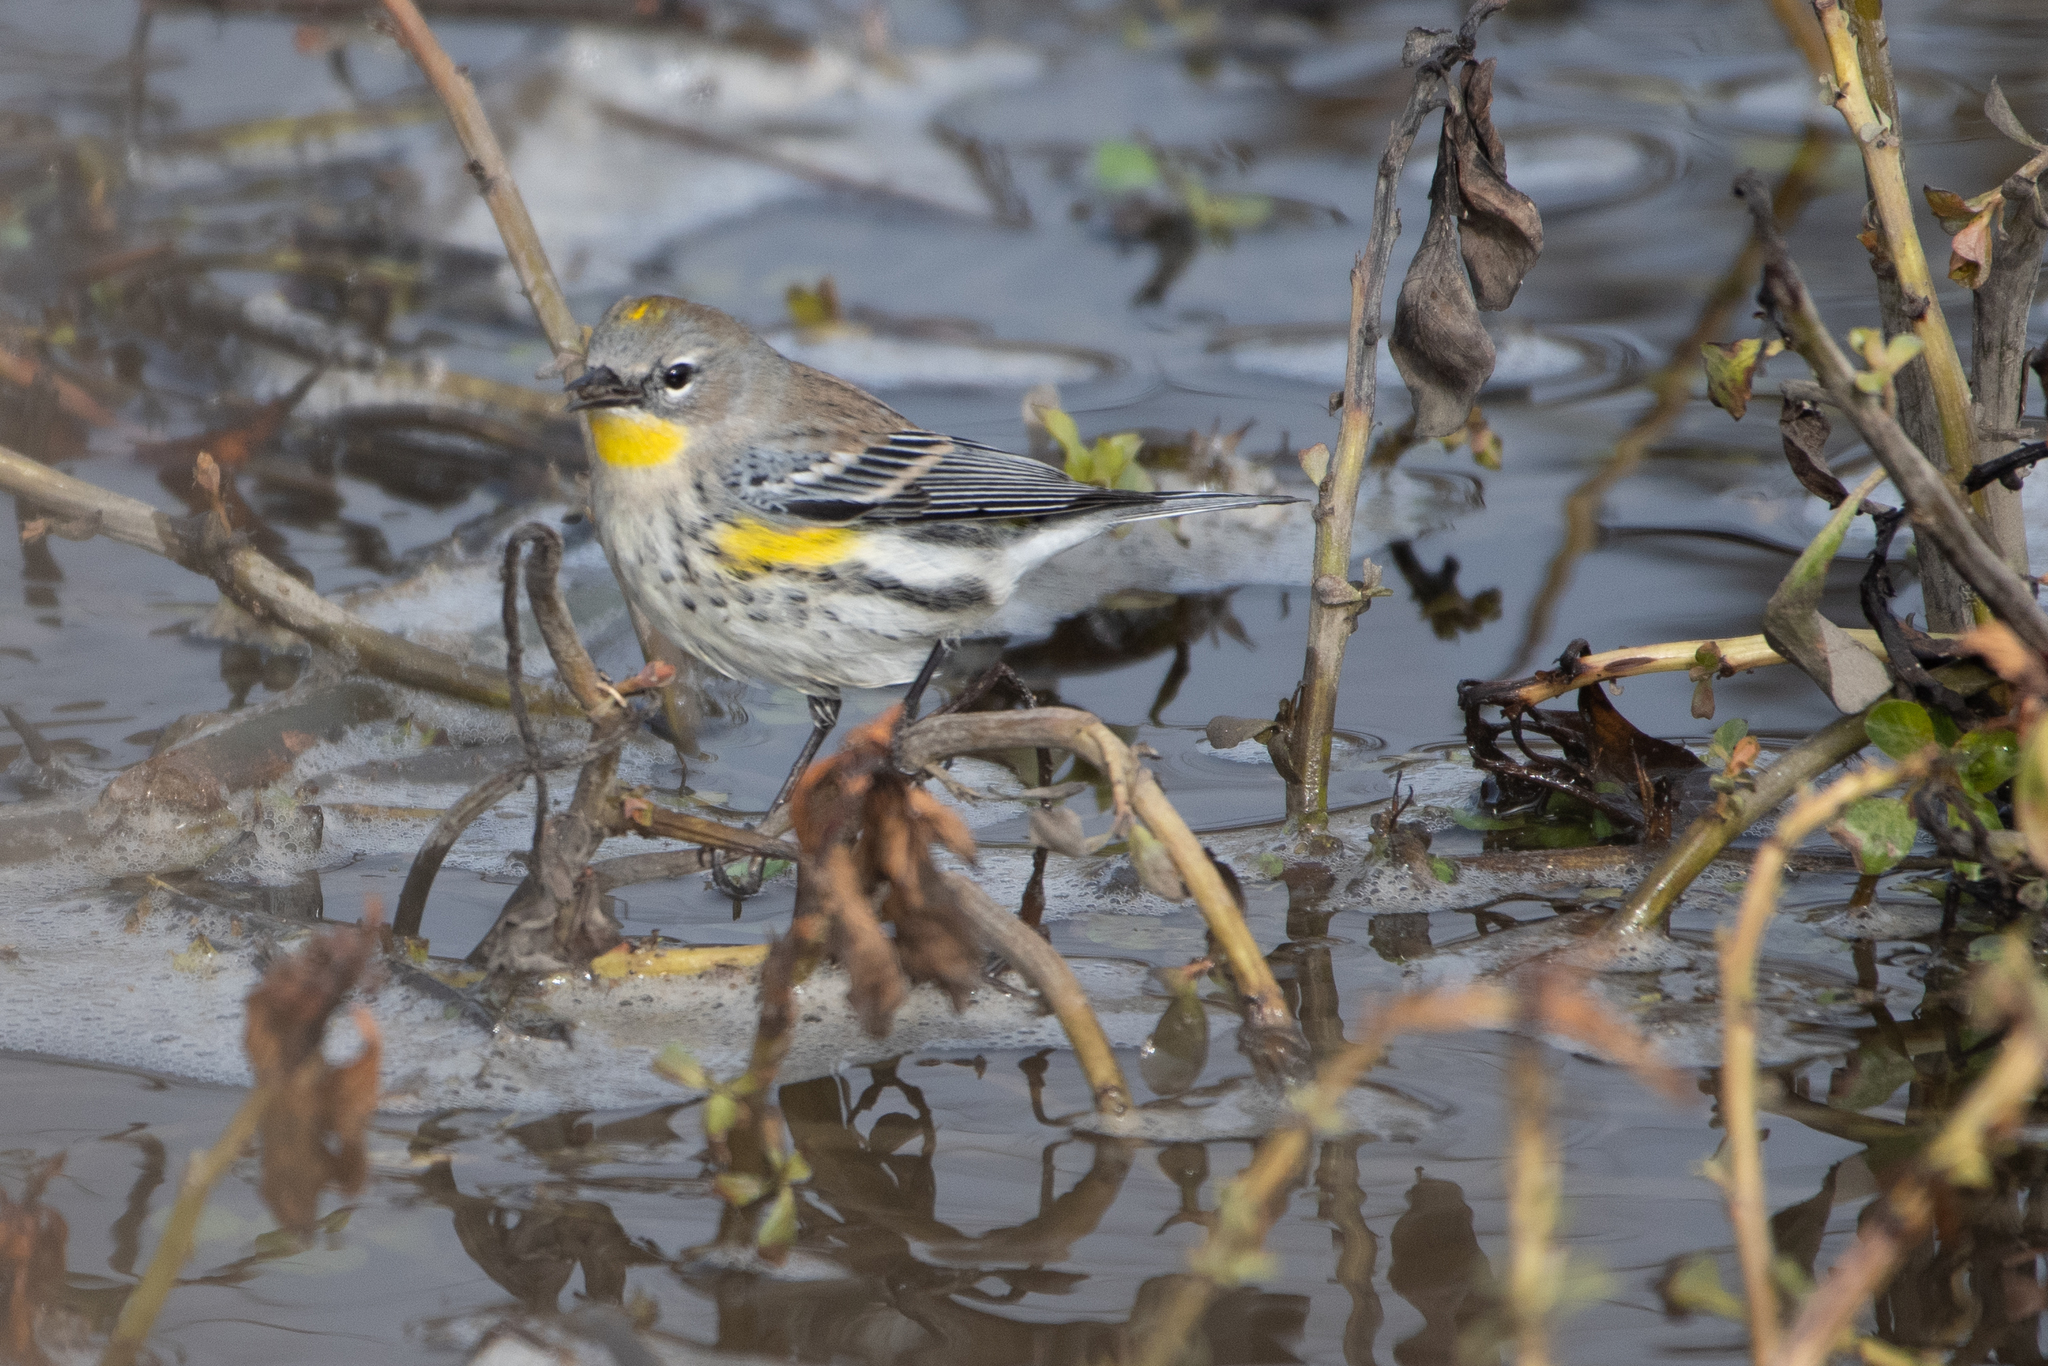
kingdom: Animalia
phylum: Chordata
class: Aves
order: Passeriformes
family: Parulidae
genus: Setophaga
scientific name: Setophaga coronata
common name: Myrtle warbler
